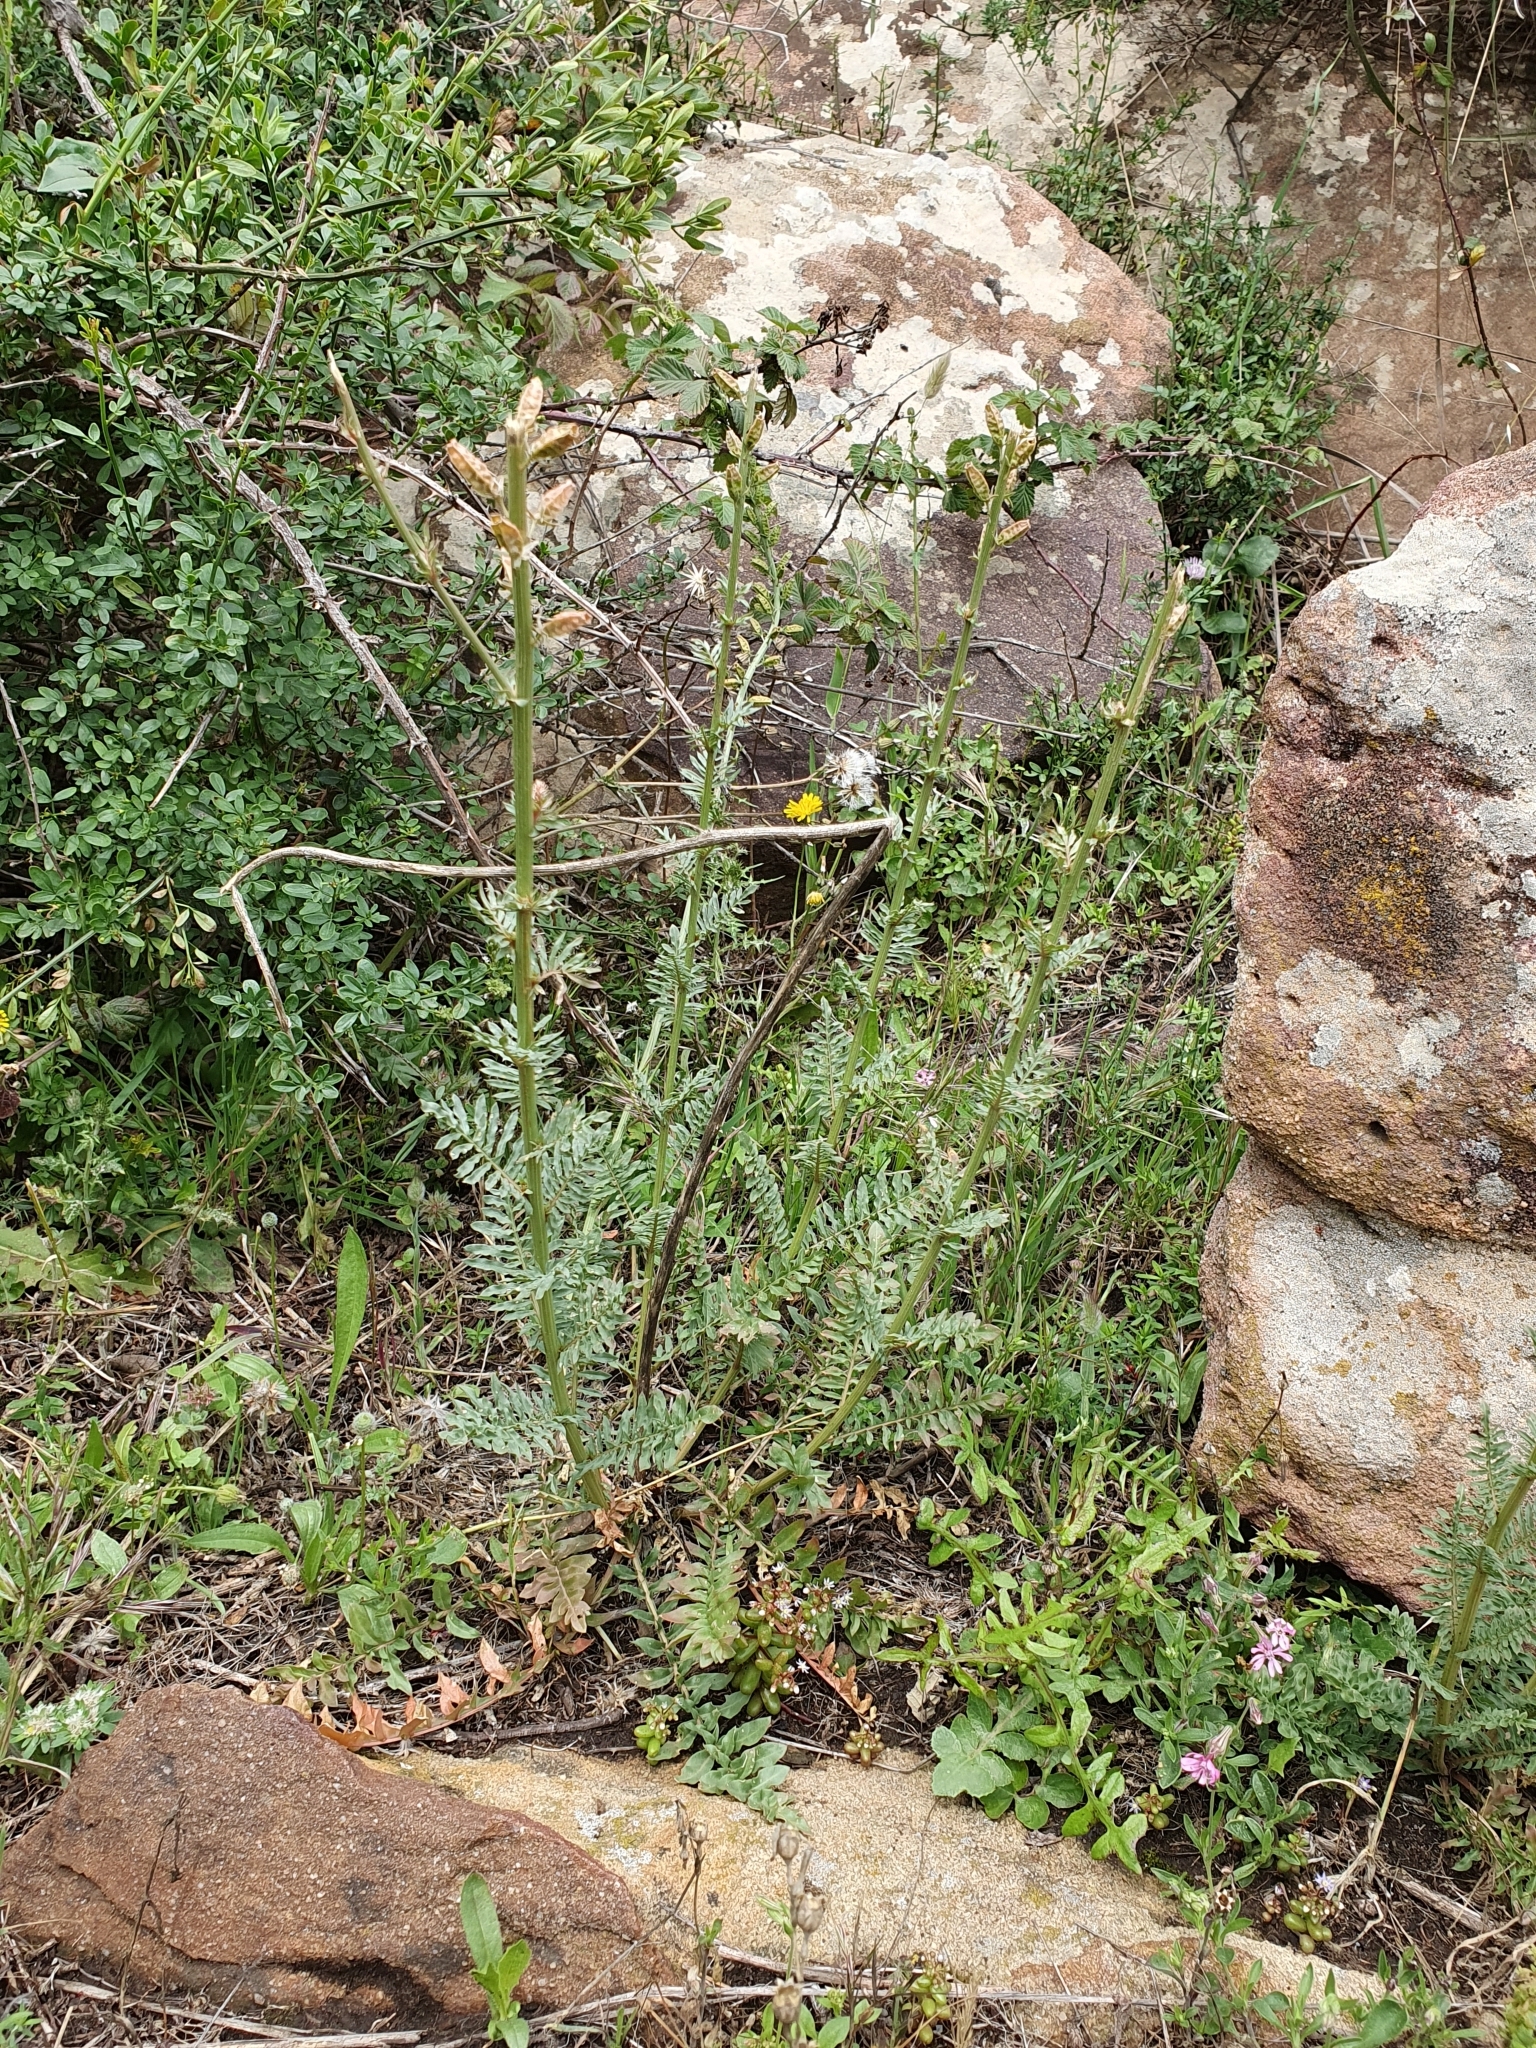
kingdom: Plantae
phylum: Tracheophyta
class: Magnoliopsida
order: Brassicales
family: Resedaceae
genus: Reseda
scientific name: Reseda alba
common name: White mignonette
